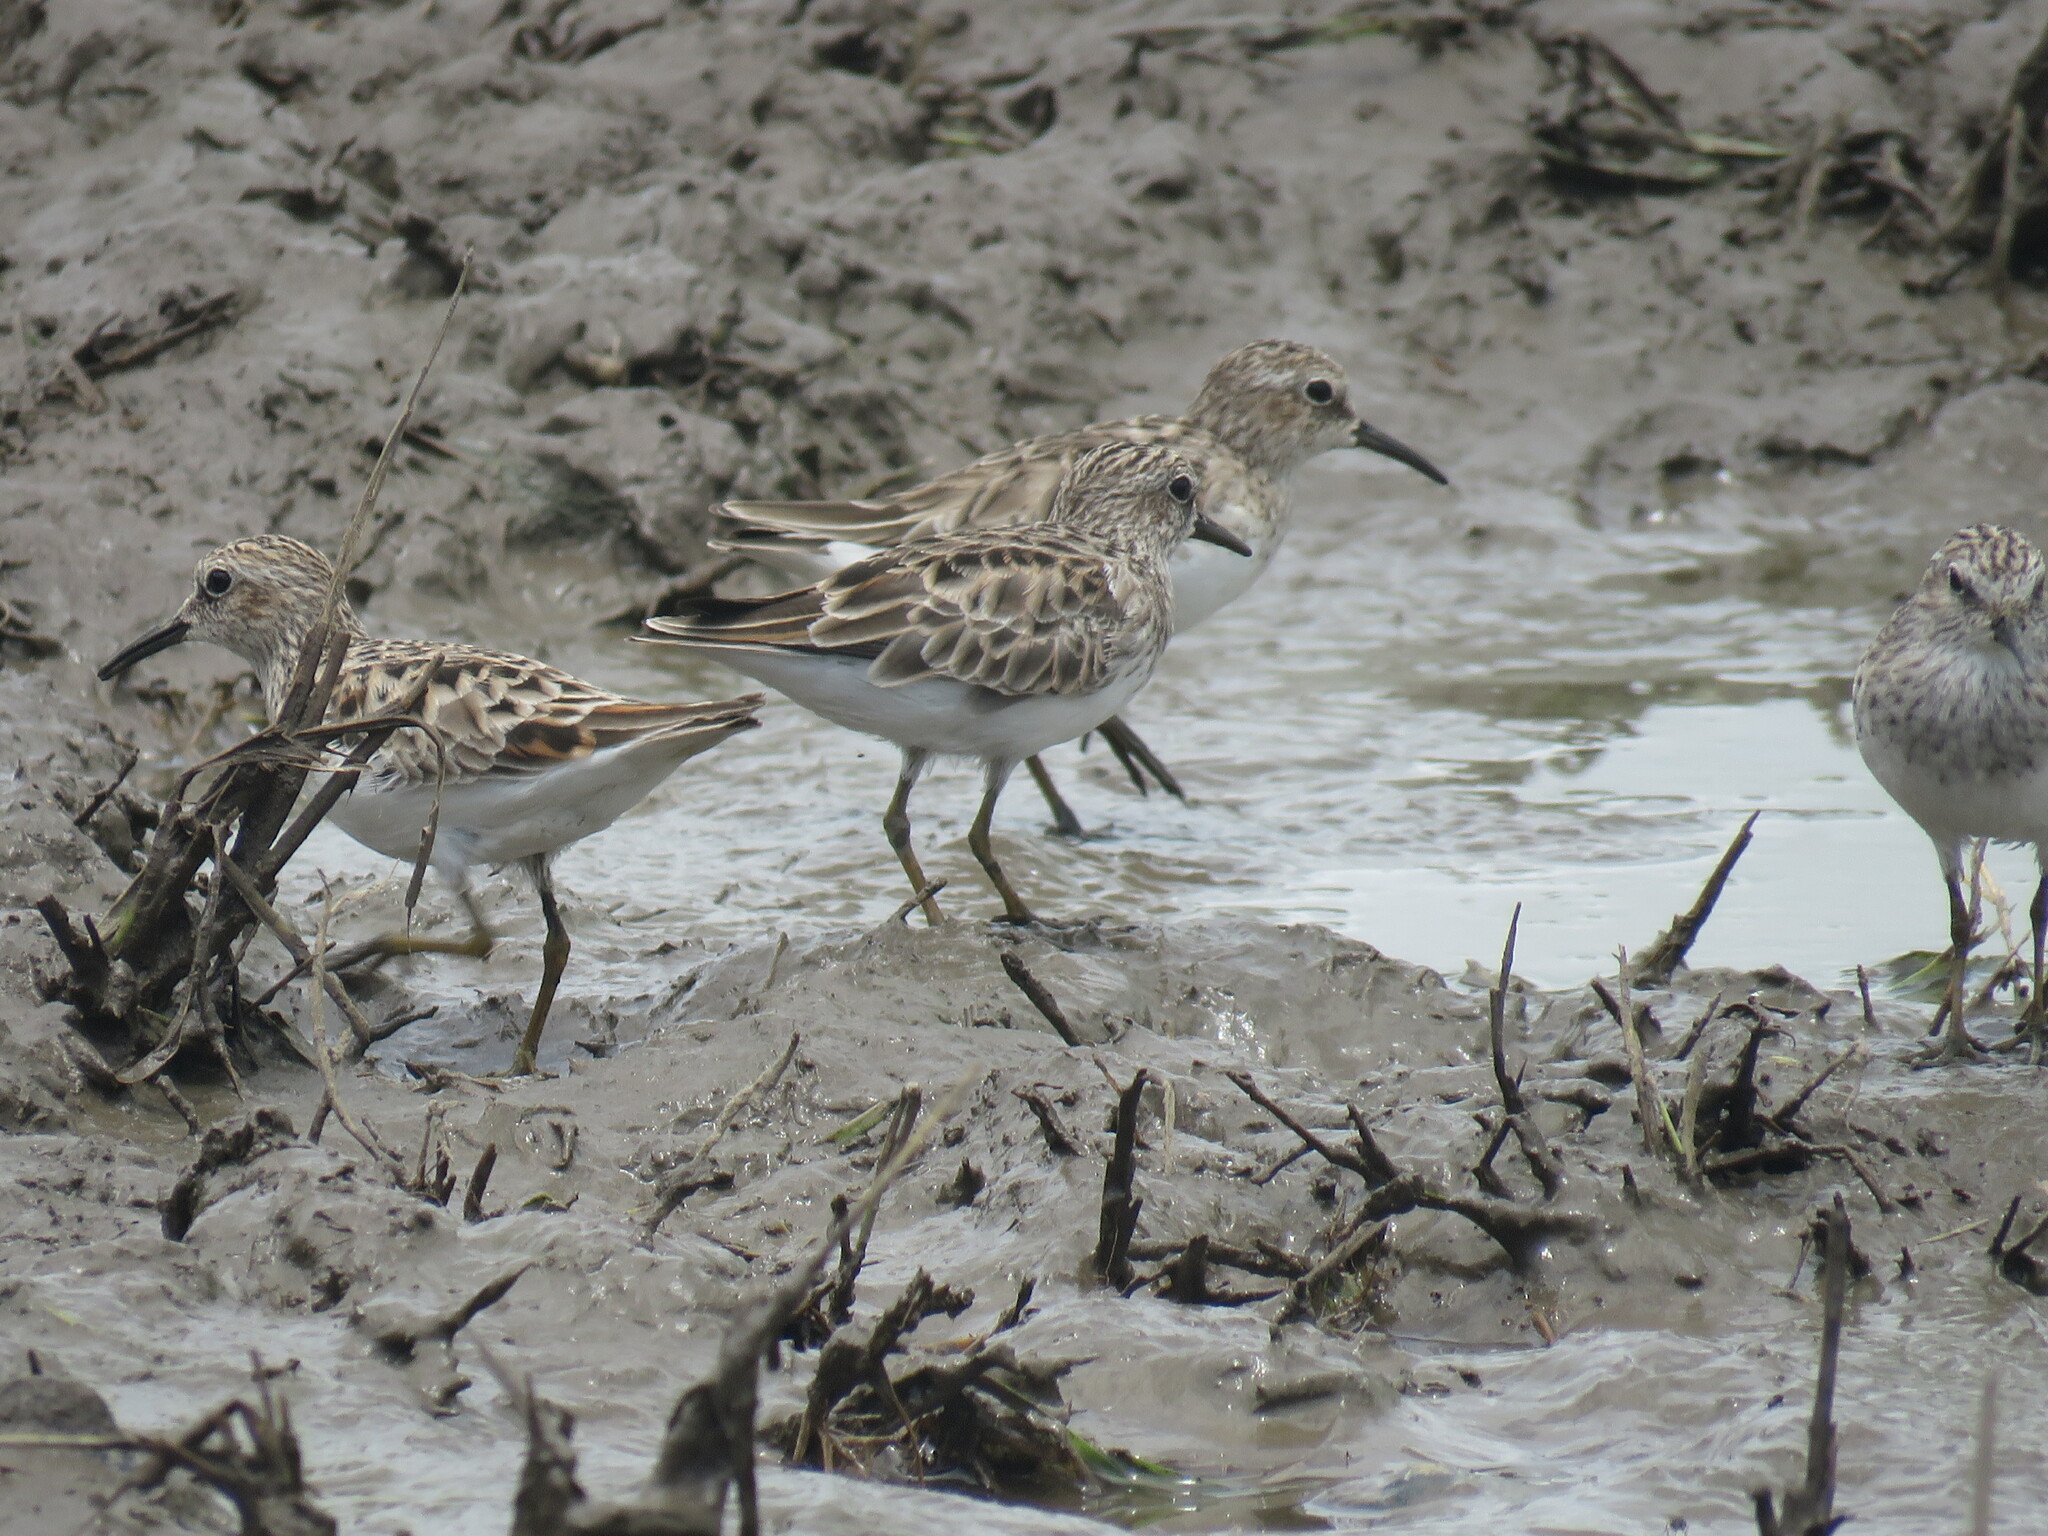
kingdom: Animalia
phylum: Chordata
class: Aves
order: Charadriiformes
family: Scolopacidae
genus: Calidris
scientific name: Calidris minutilla
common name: Least sandpiper
